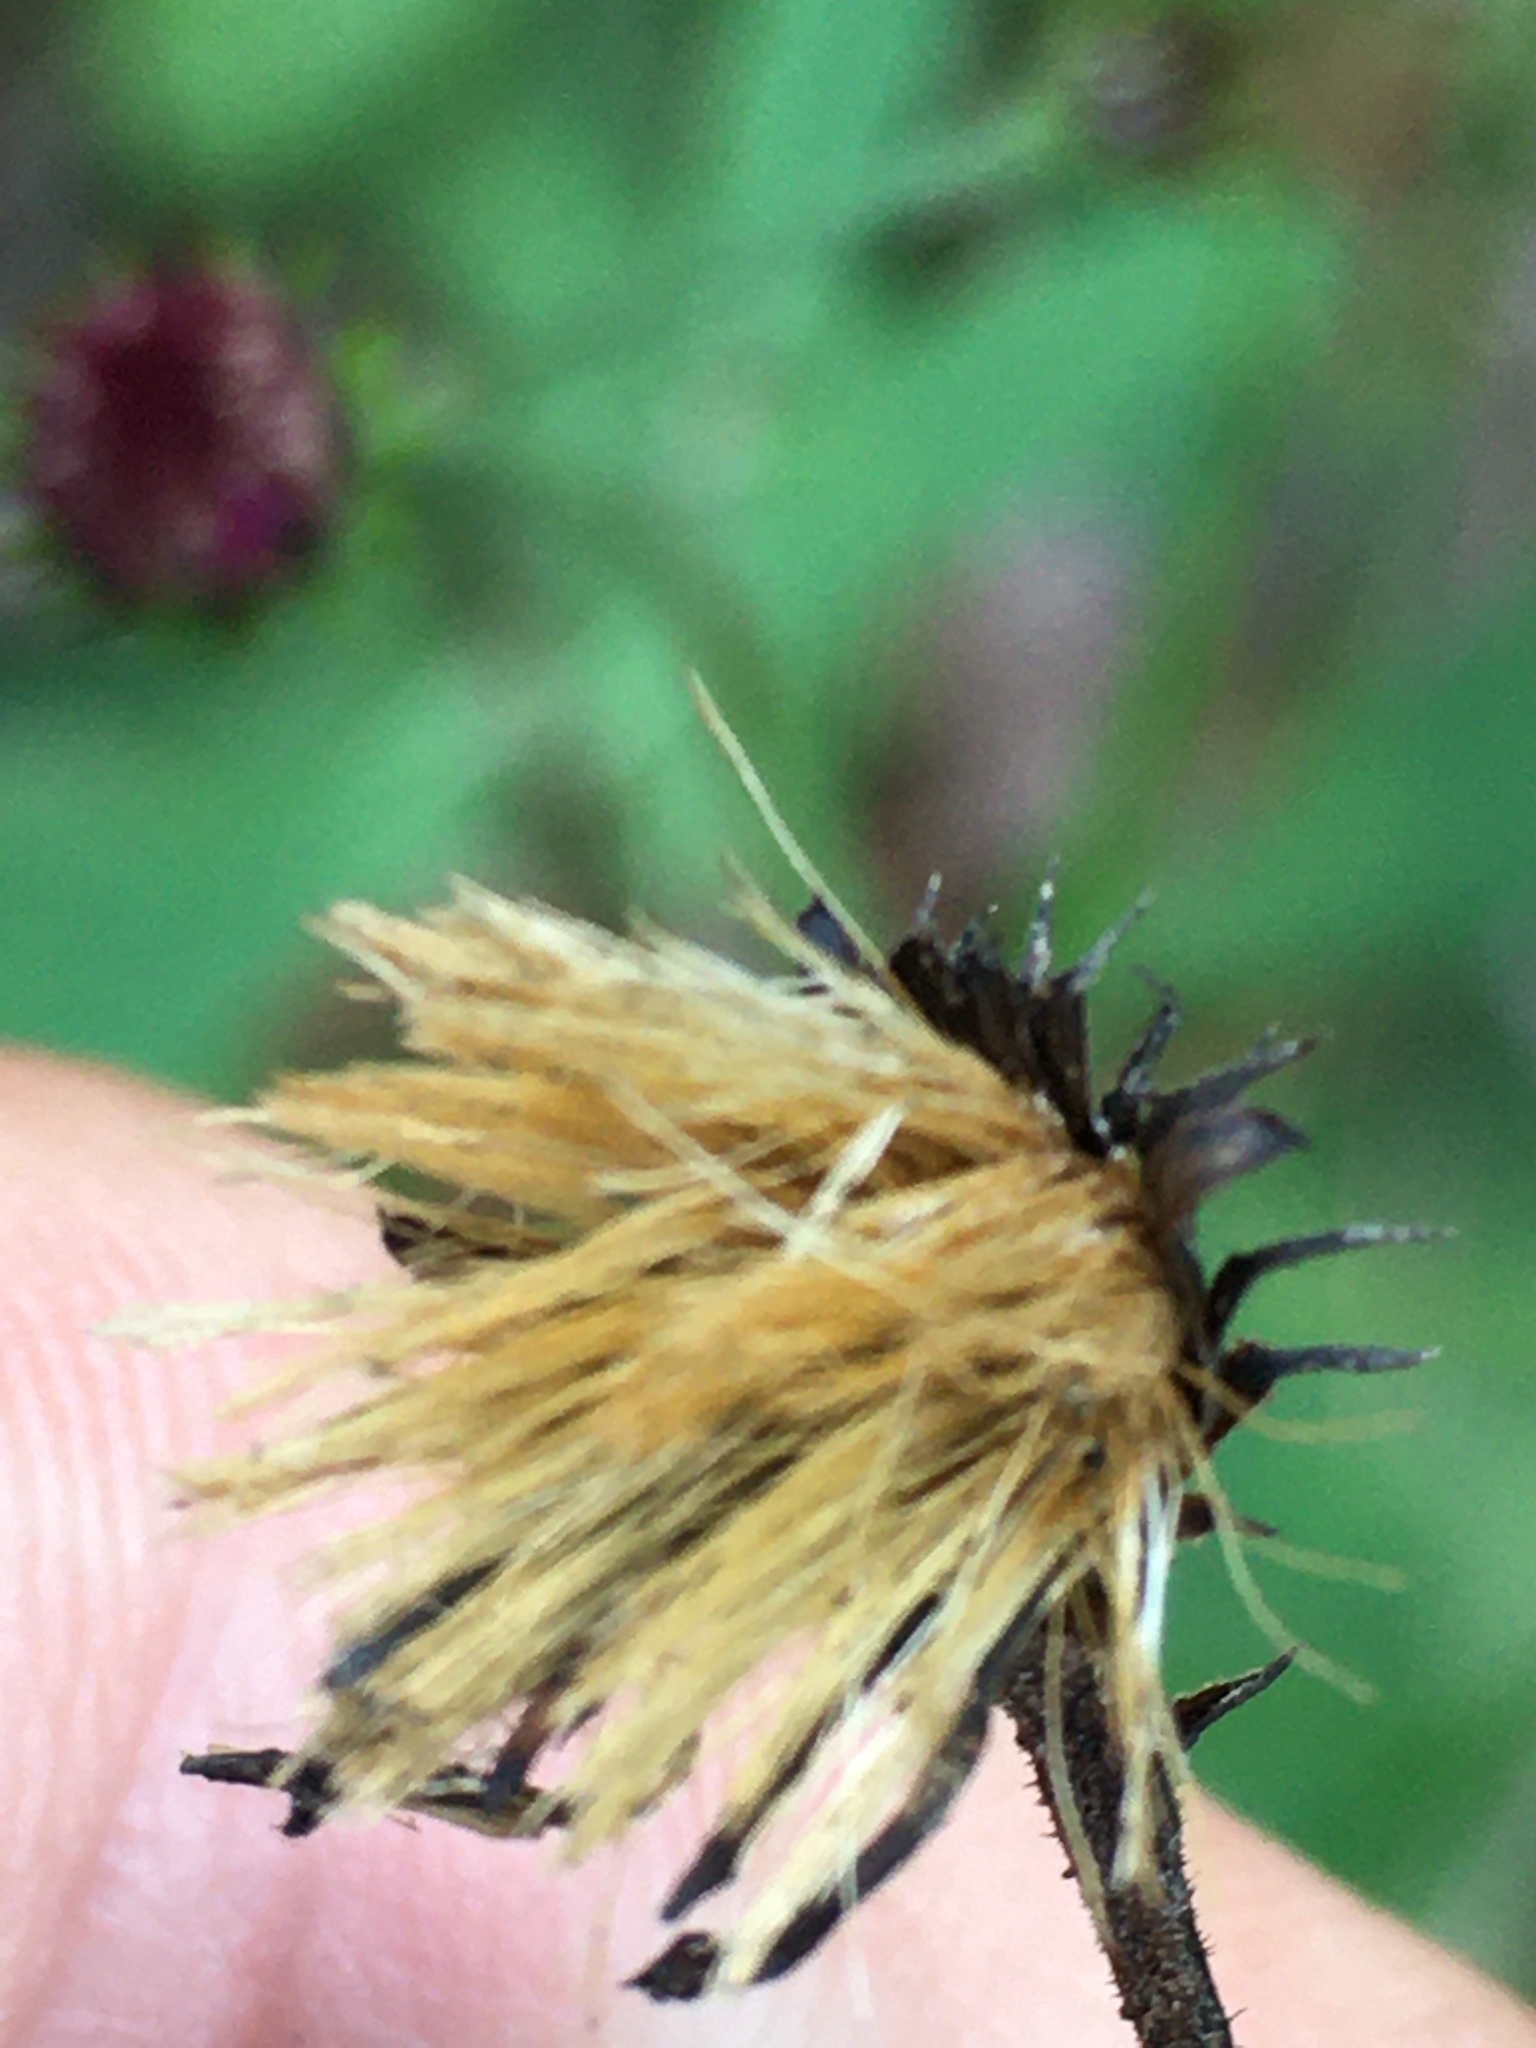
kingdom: Plantae
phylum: Tracheophyta
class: Magnoliopsida
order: Asterales
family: Asteraceae
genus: Vernonia
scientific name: Vernonia acaulis
